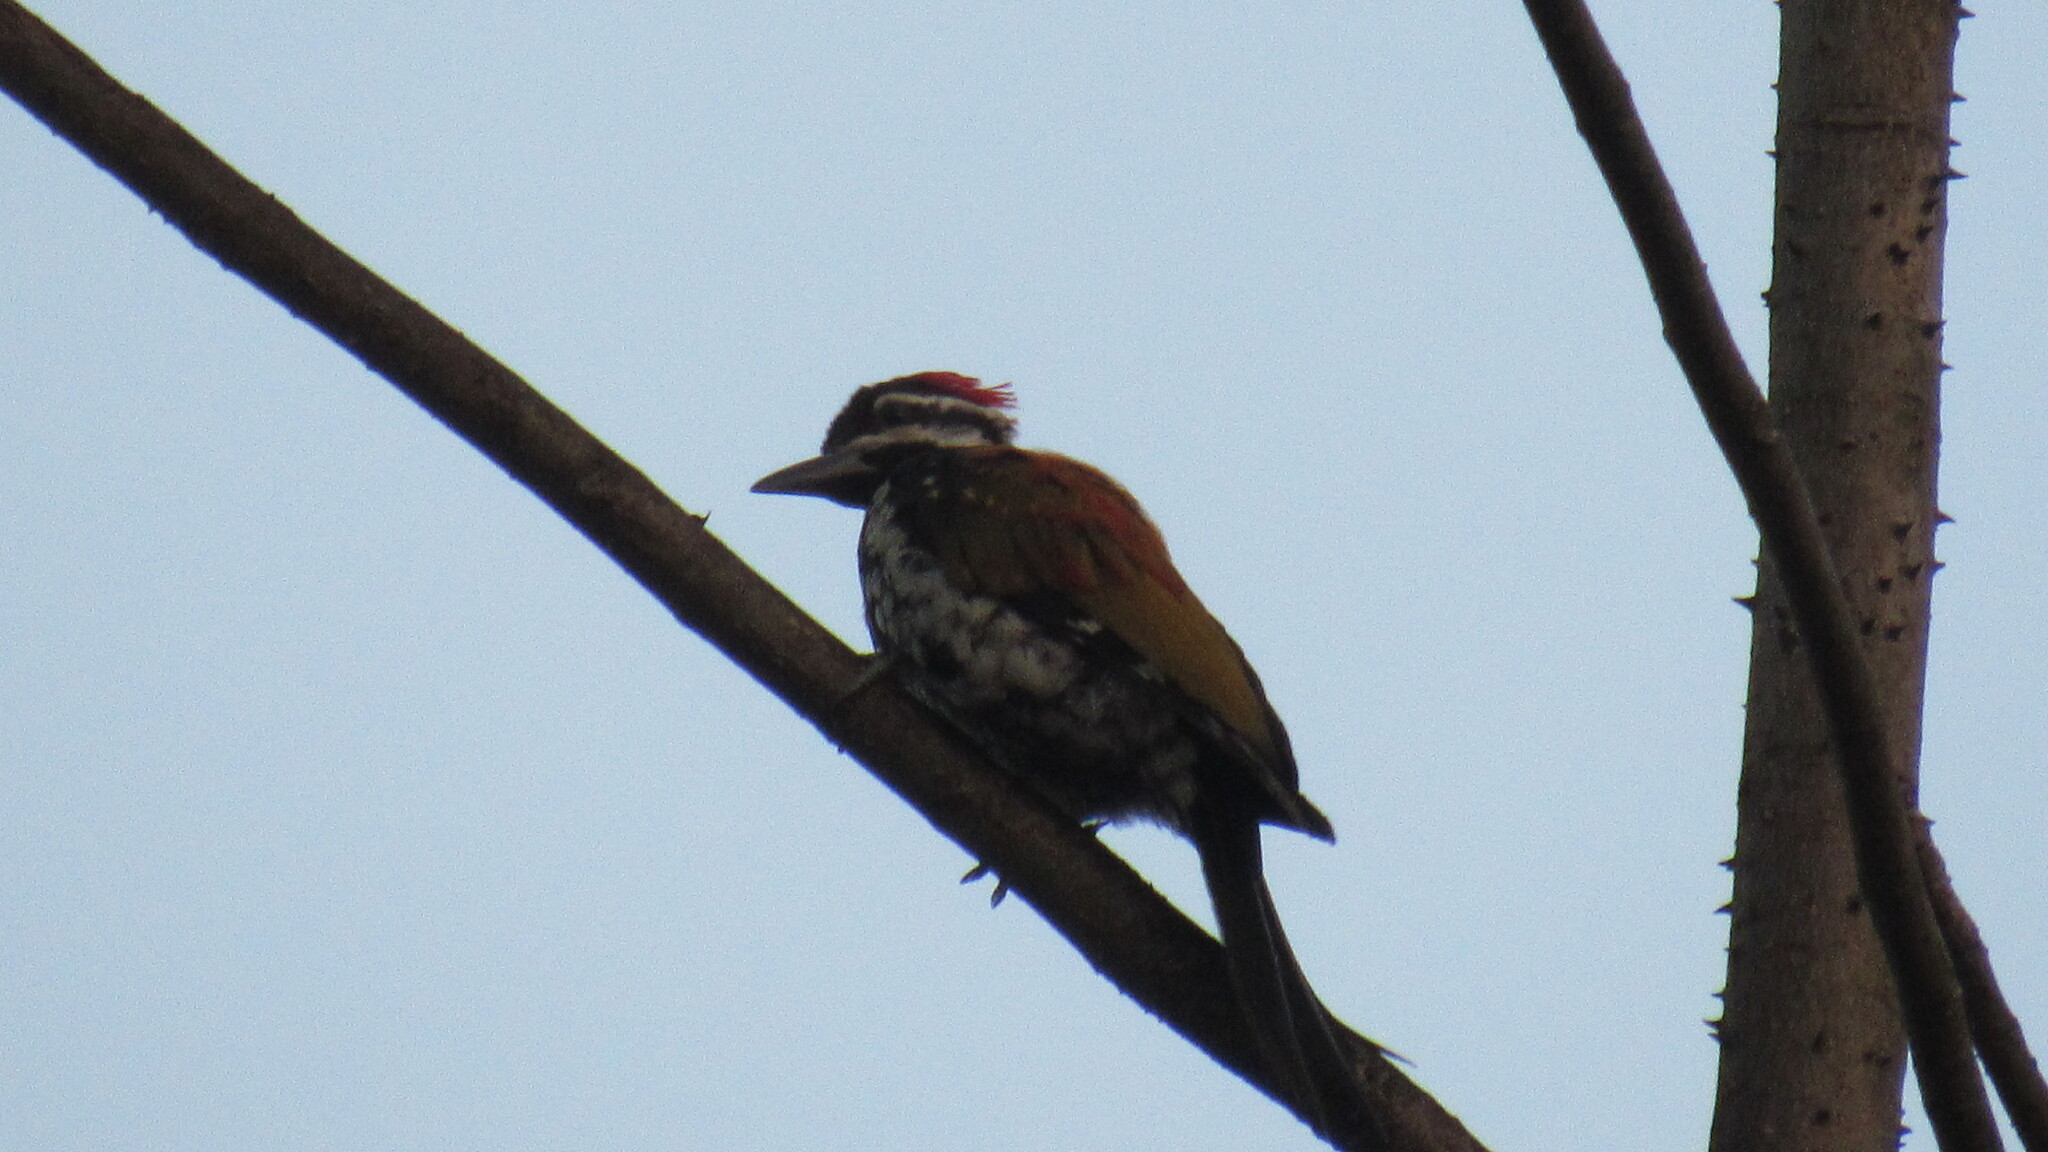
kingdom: Animalia
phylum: Chordata
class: Aves
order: Piciformes
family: Picidae
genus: Dinopium
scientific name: Dinopium benghalense
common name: Black-rumped flameback
